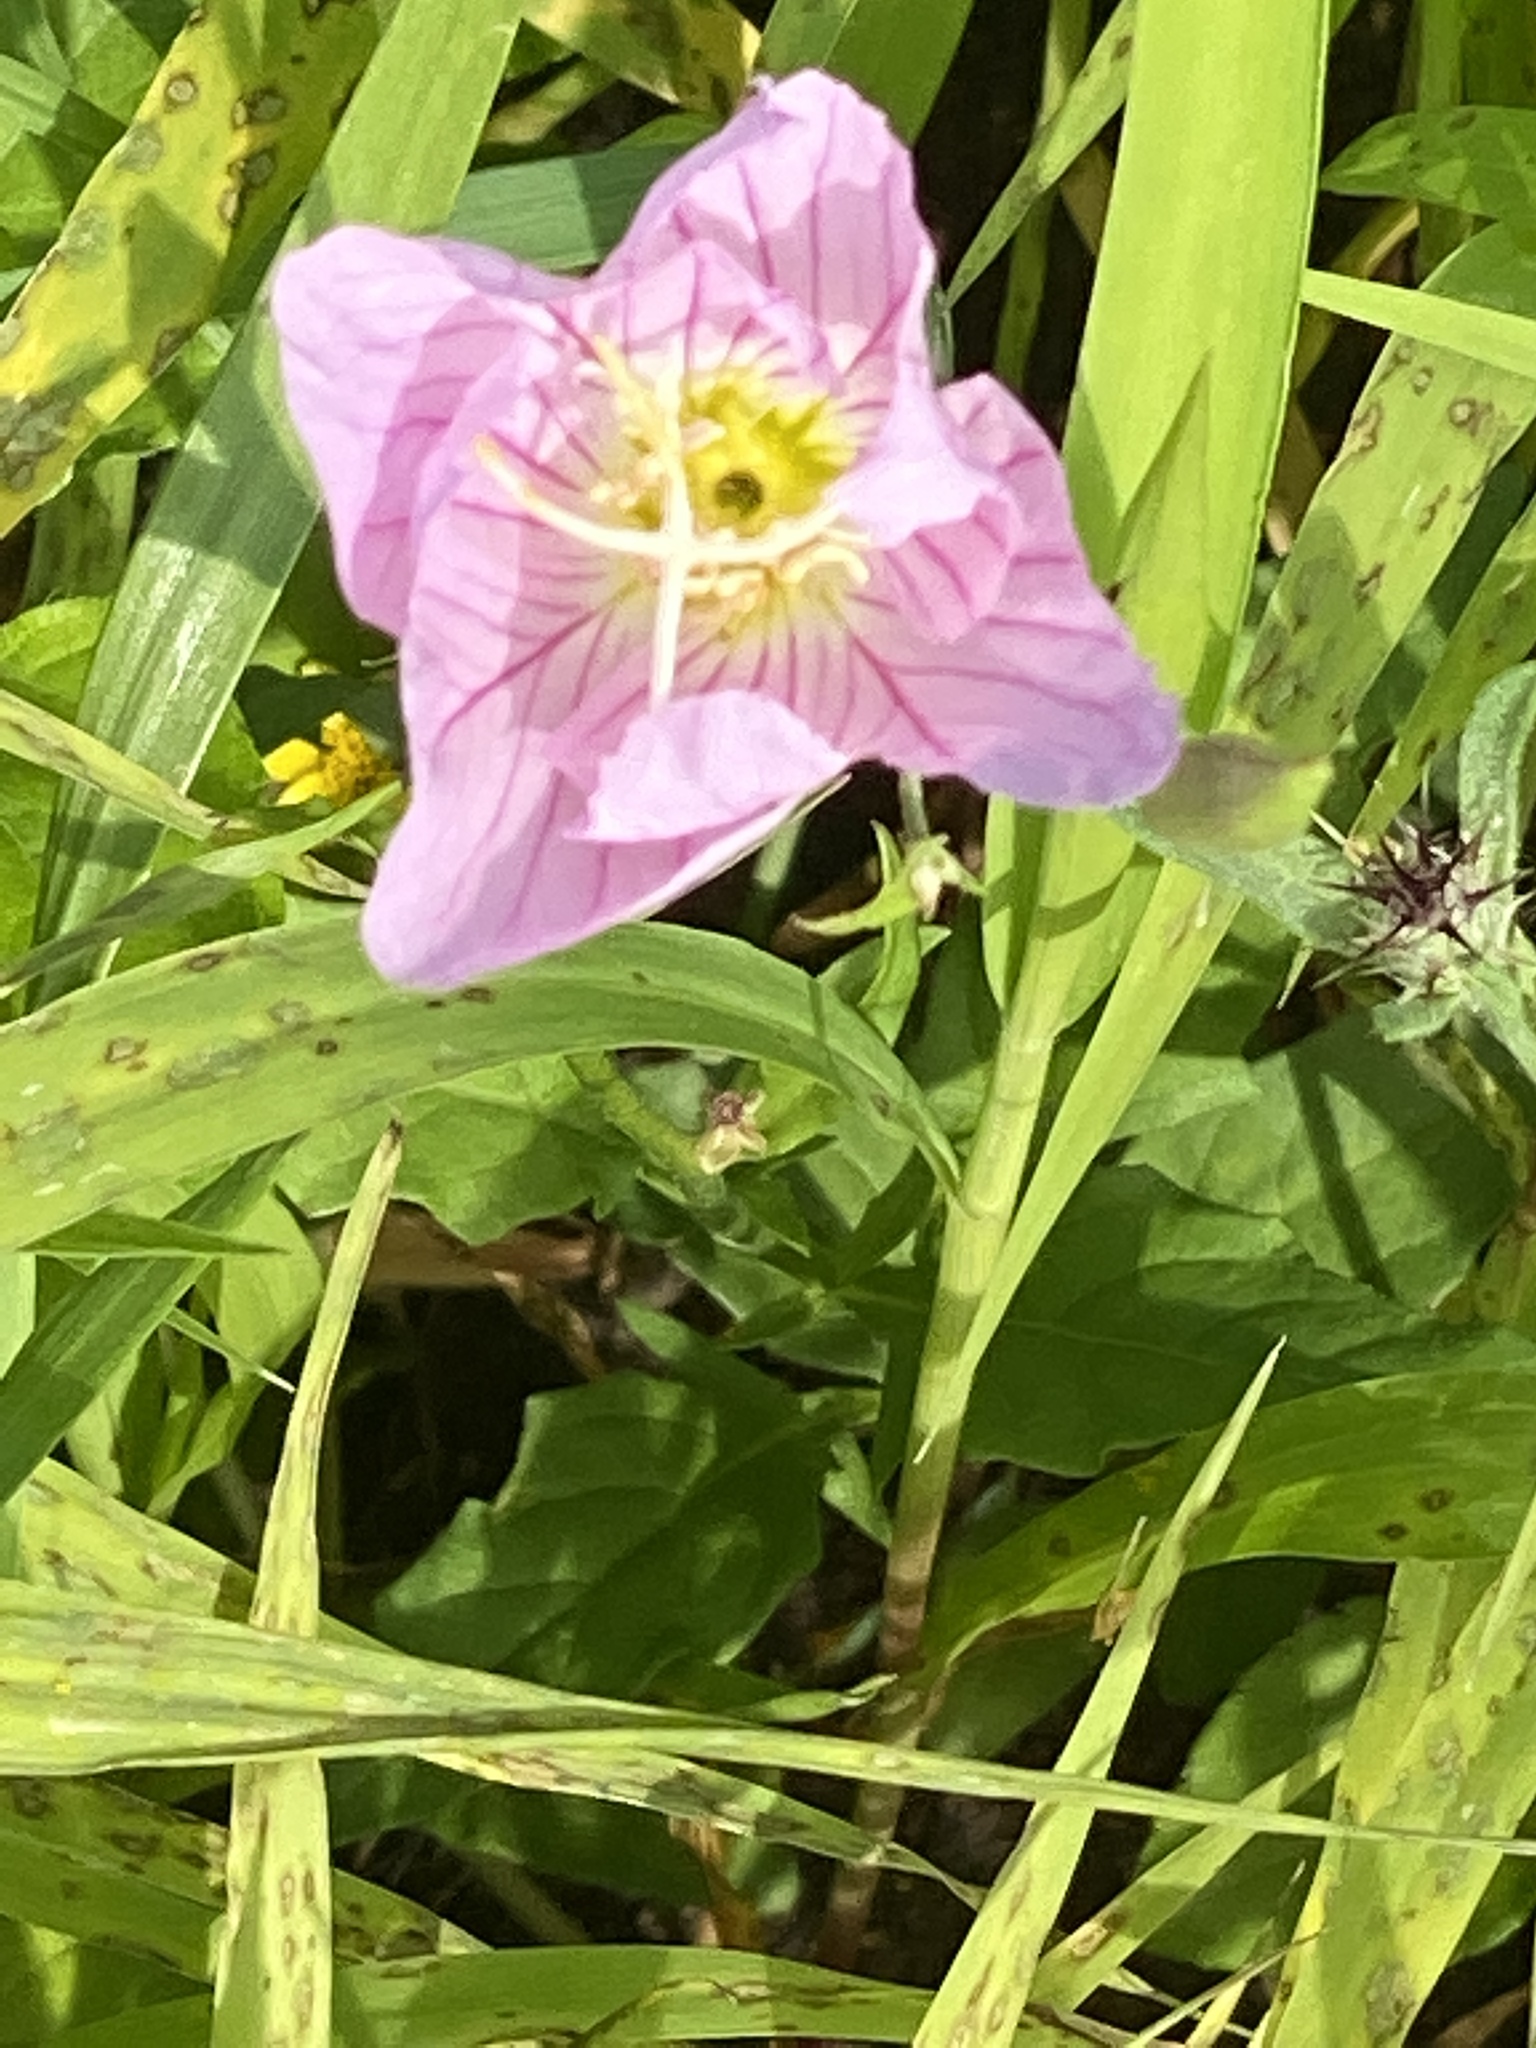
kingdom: Plantae
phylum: Tracheophyta
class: Magnoliopsida
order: Myrtales
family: Onagraceae
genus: Oenothera
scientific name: Oenothera speciosa
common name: White evening-primrose
